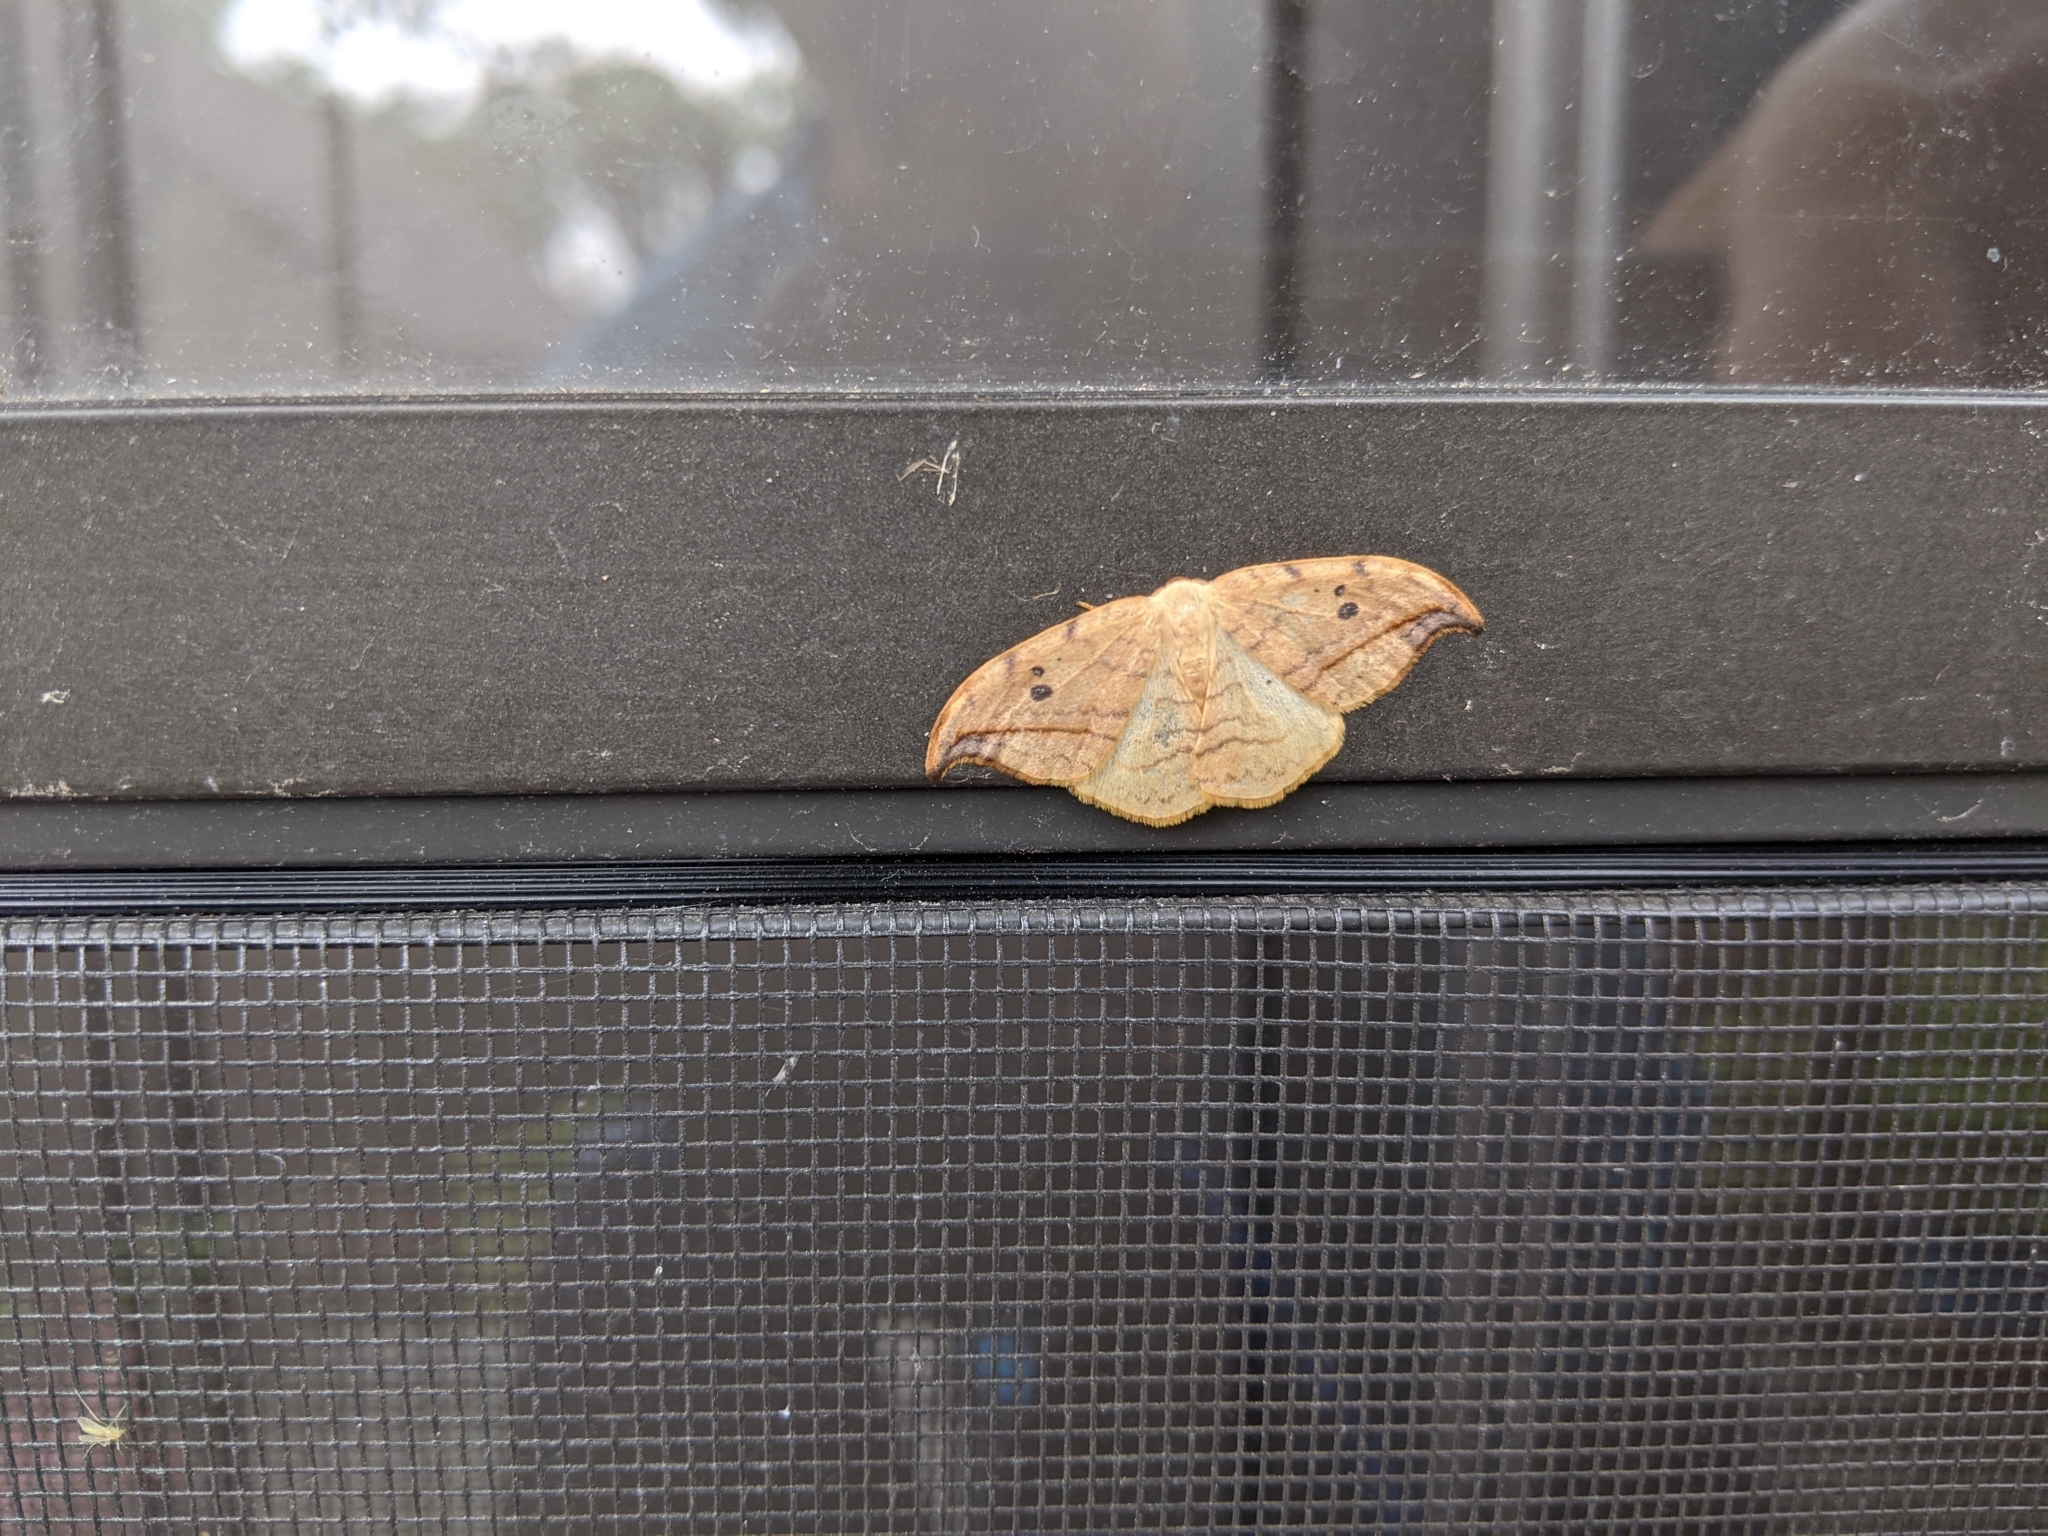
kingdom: Animalia
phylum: Arthropoda
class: Insecta
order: Lepidoptera
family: Drepanidae
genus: Drepana
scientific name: Drepana arcuata
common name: Arched hooktip moth
